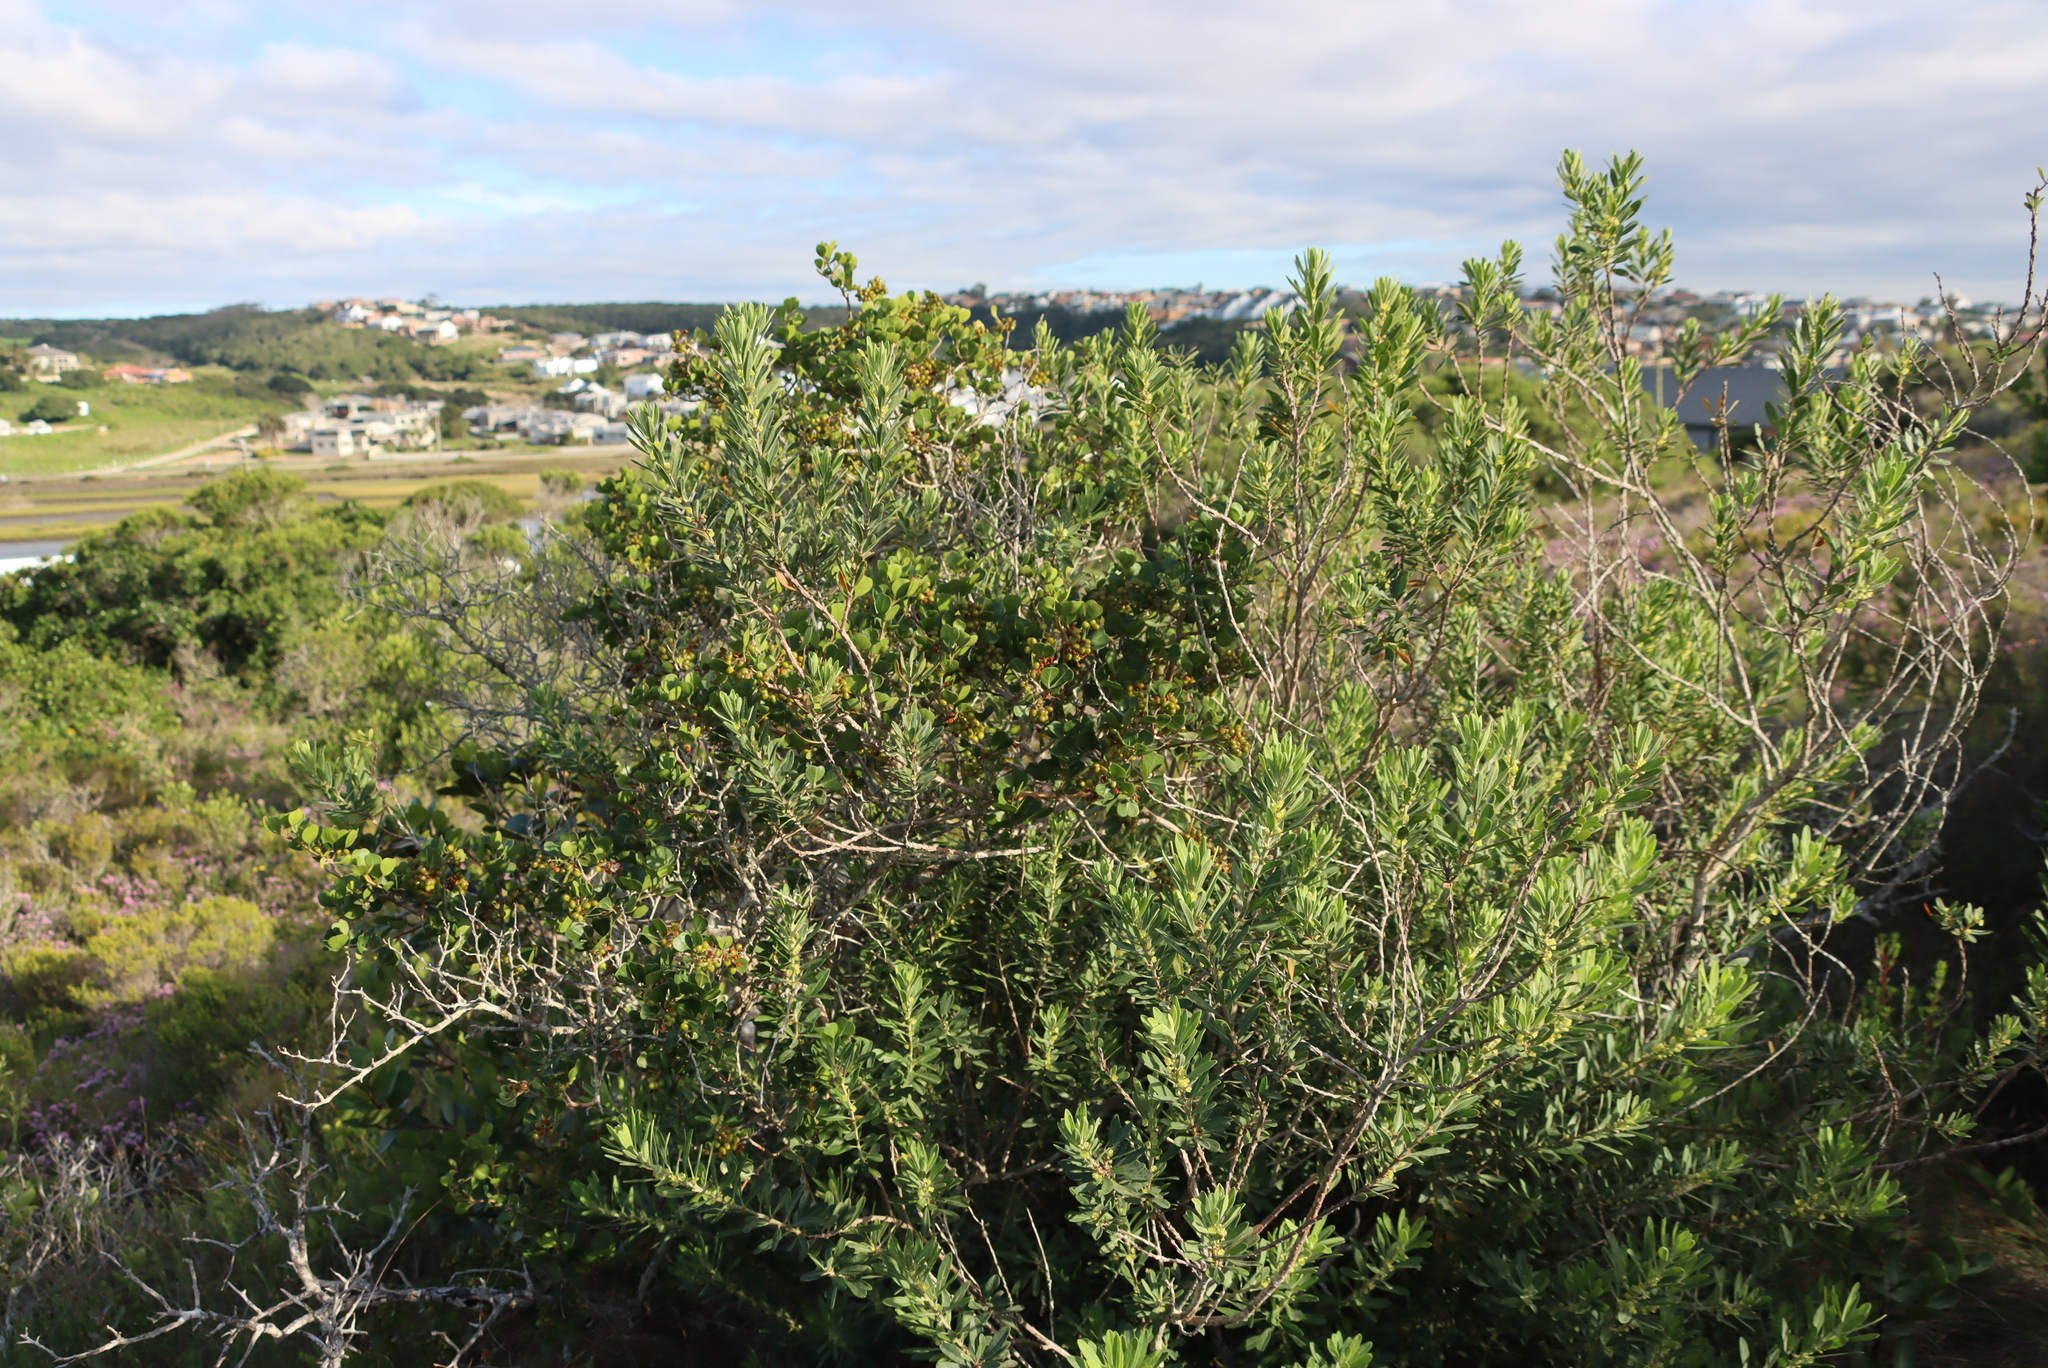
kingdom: Plantae
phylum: Tracheophyta
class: Magnoliopsida
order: Sapindales
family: Anacardiaceae
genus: Searsia
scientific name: Searsia glauca
